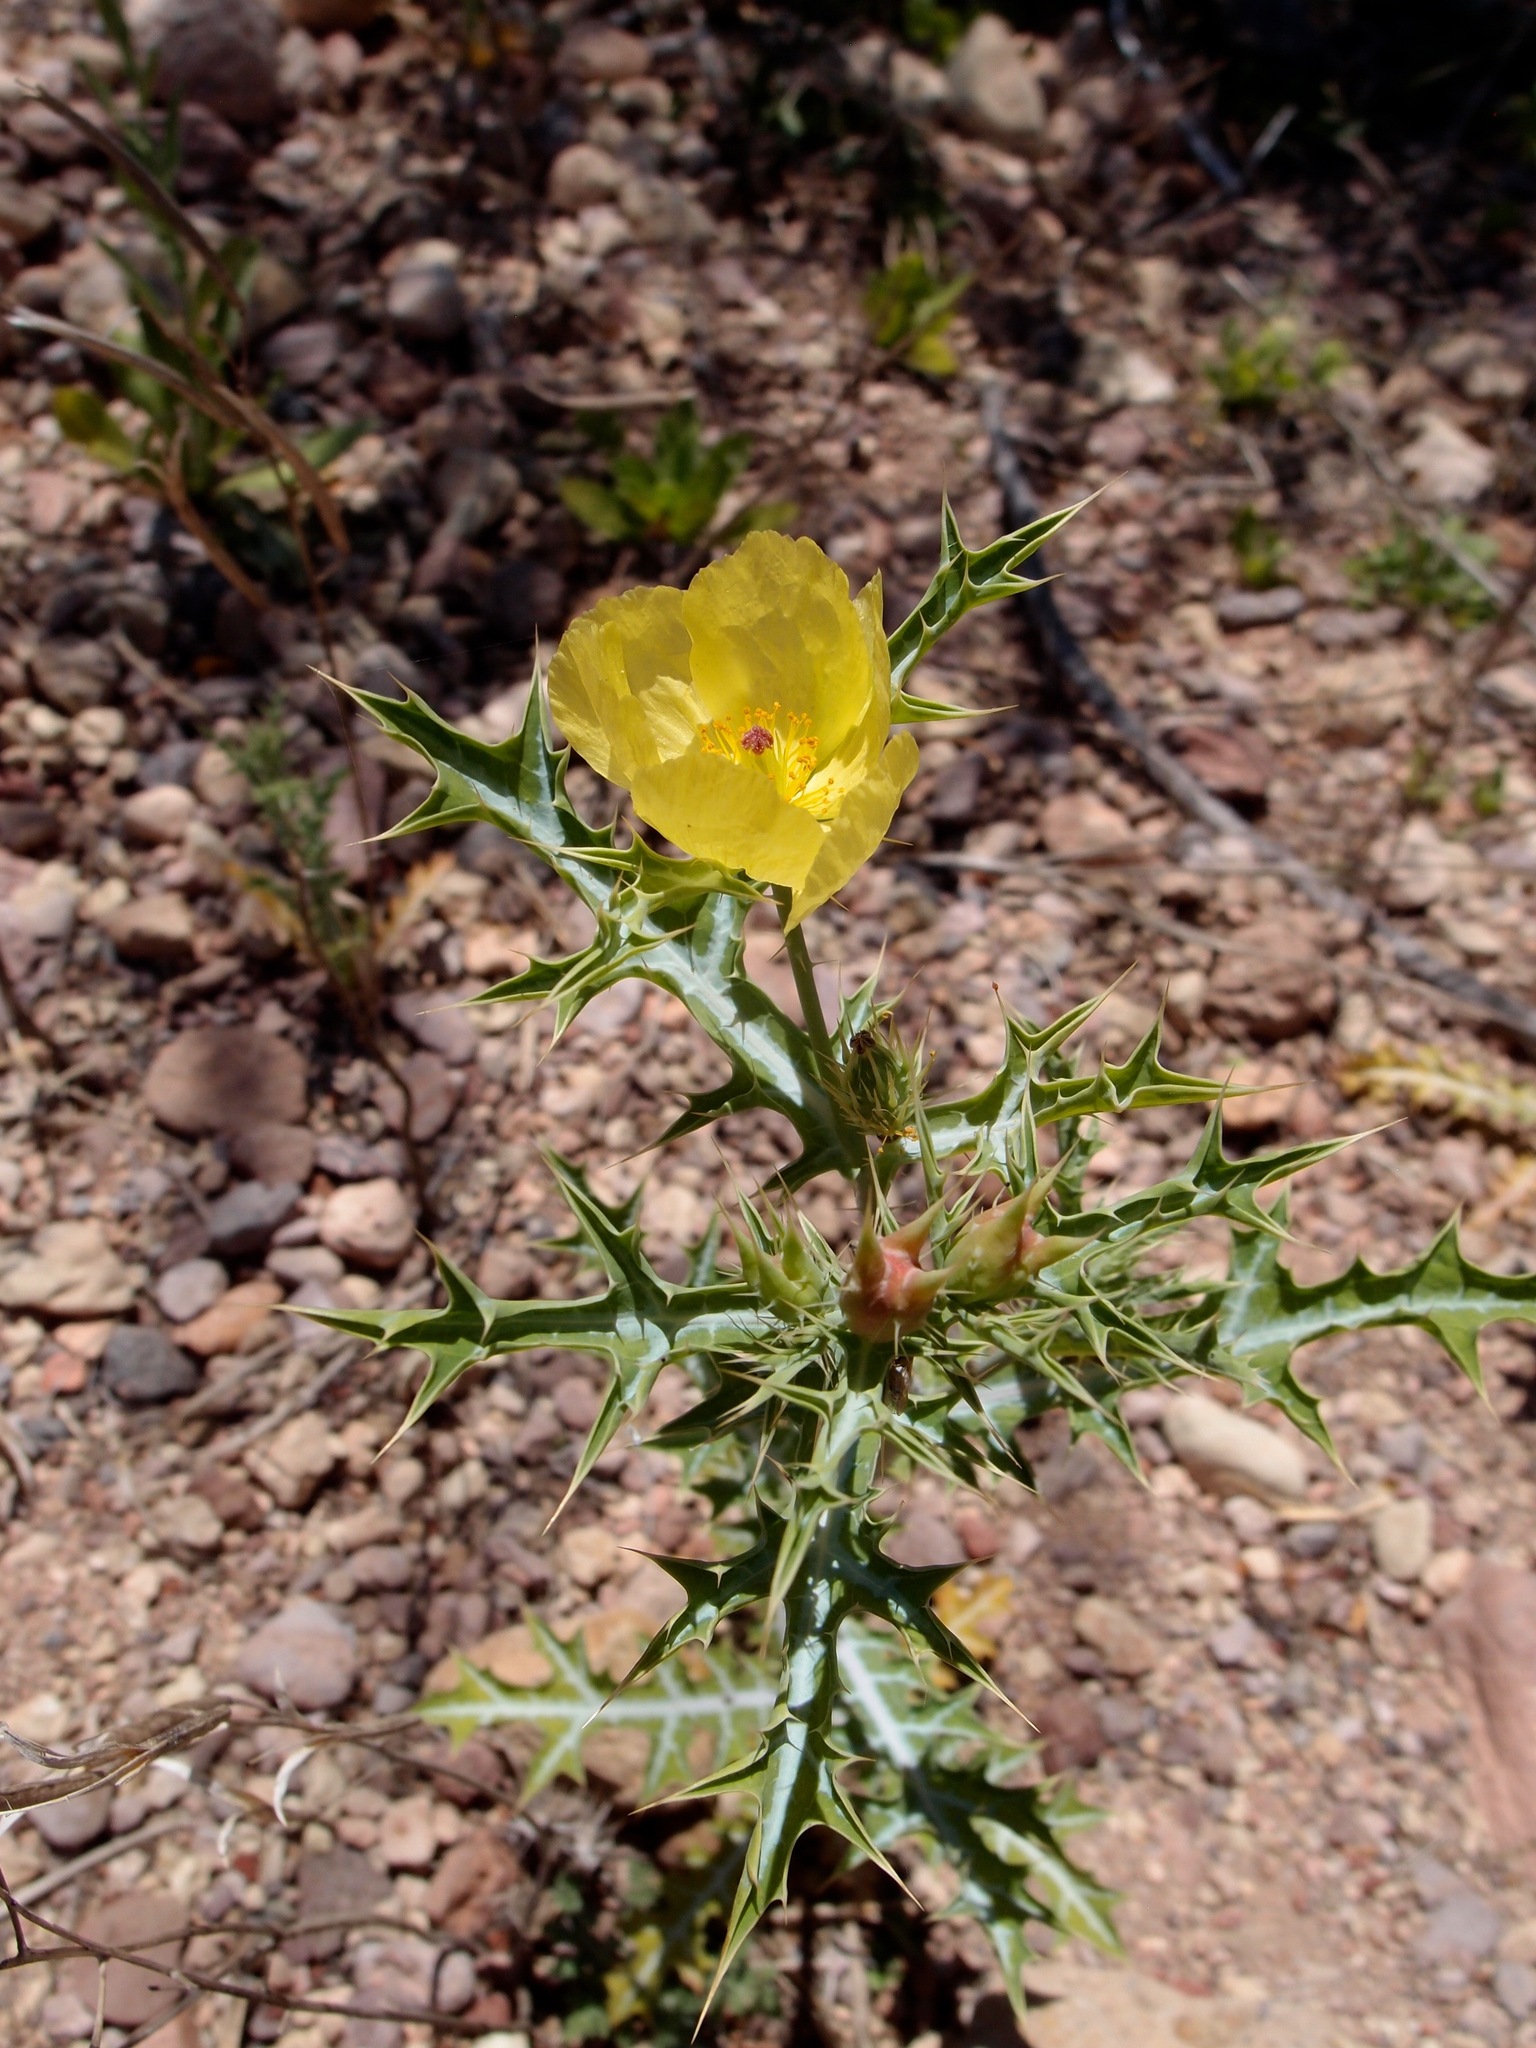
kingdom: Plantae
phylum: Tracheophyta
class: Magnoliopsida
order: Ranunculales
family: Papaveraceae
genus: Argemone
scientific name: Argemone mexicana
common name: Mexican poppy
